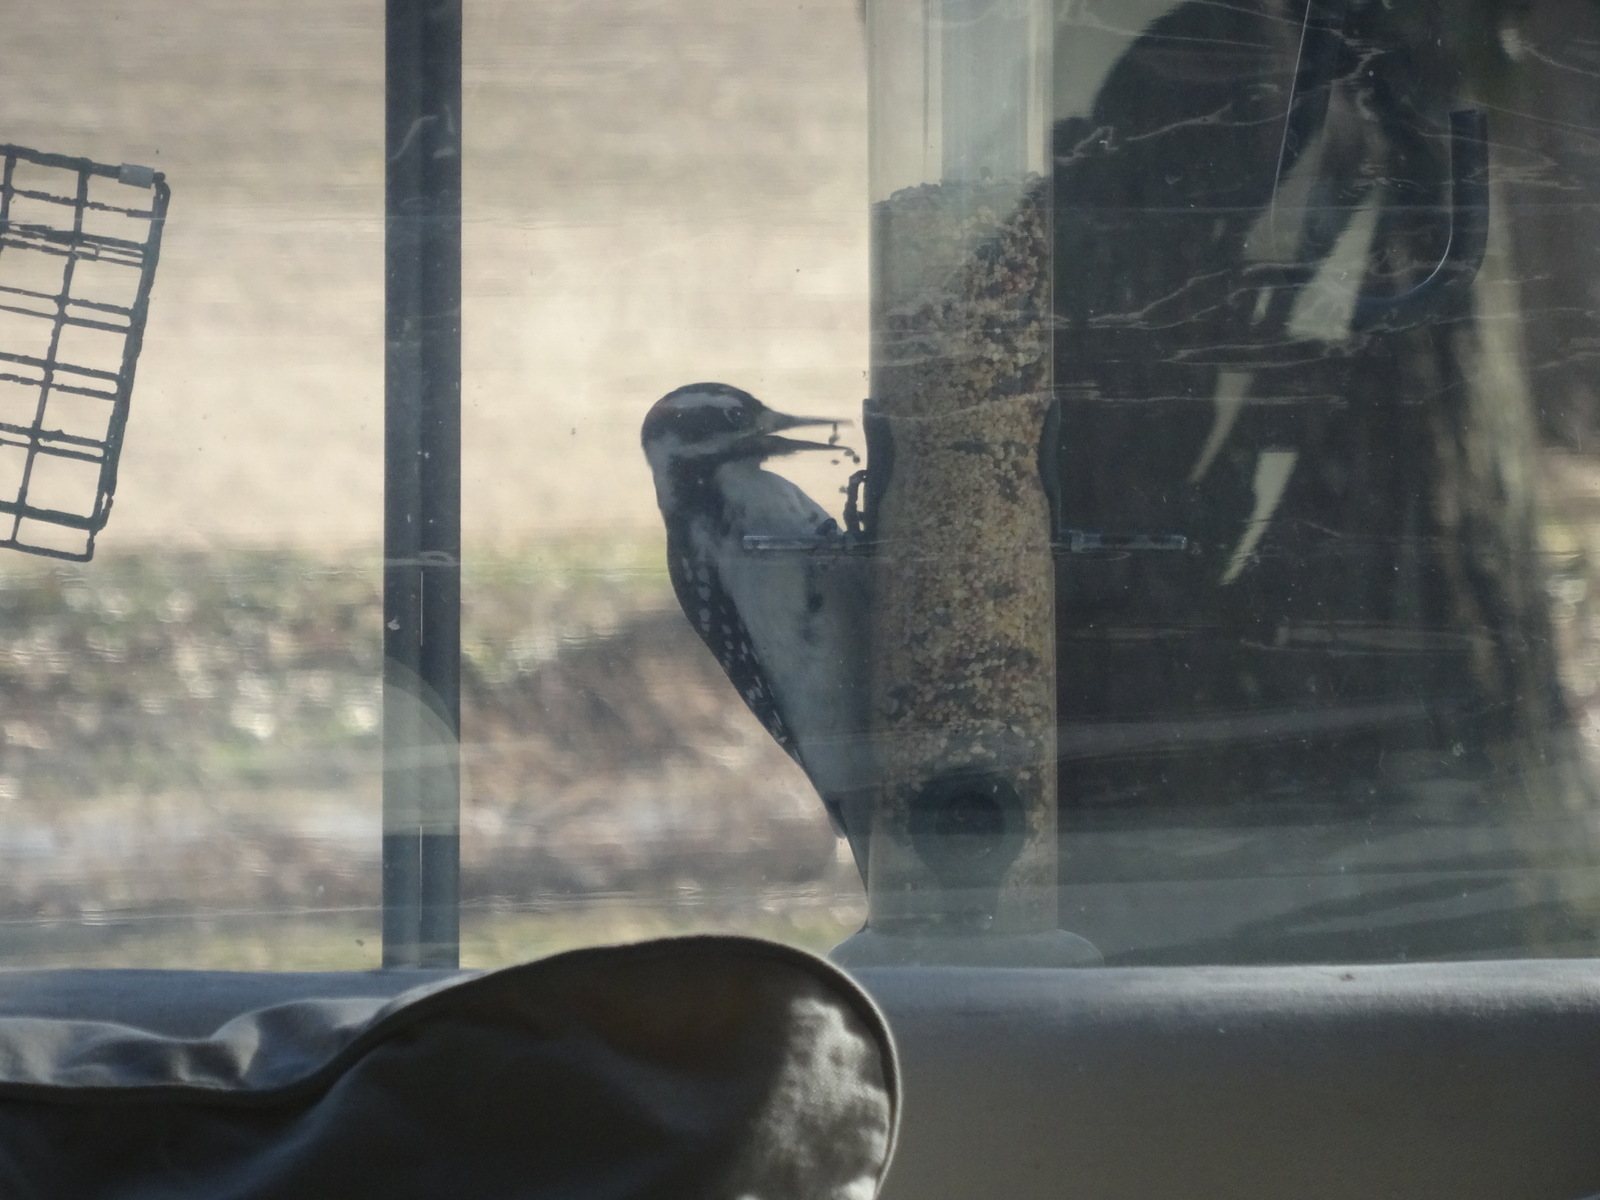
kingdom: Animalia
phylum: Chordata
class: Aves
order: Piciformes
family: Picidae
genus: Leuconotopicus
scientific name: Leuconotopicus villosus
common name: Hairy woodpecker
